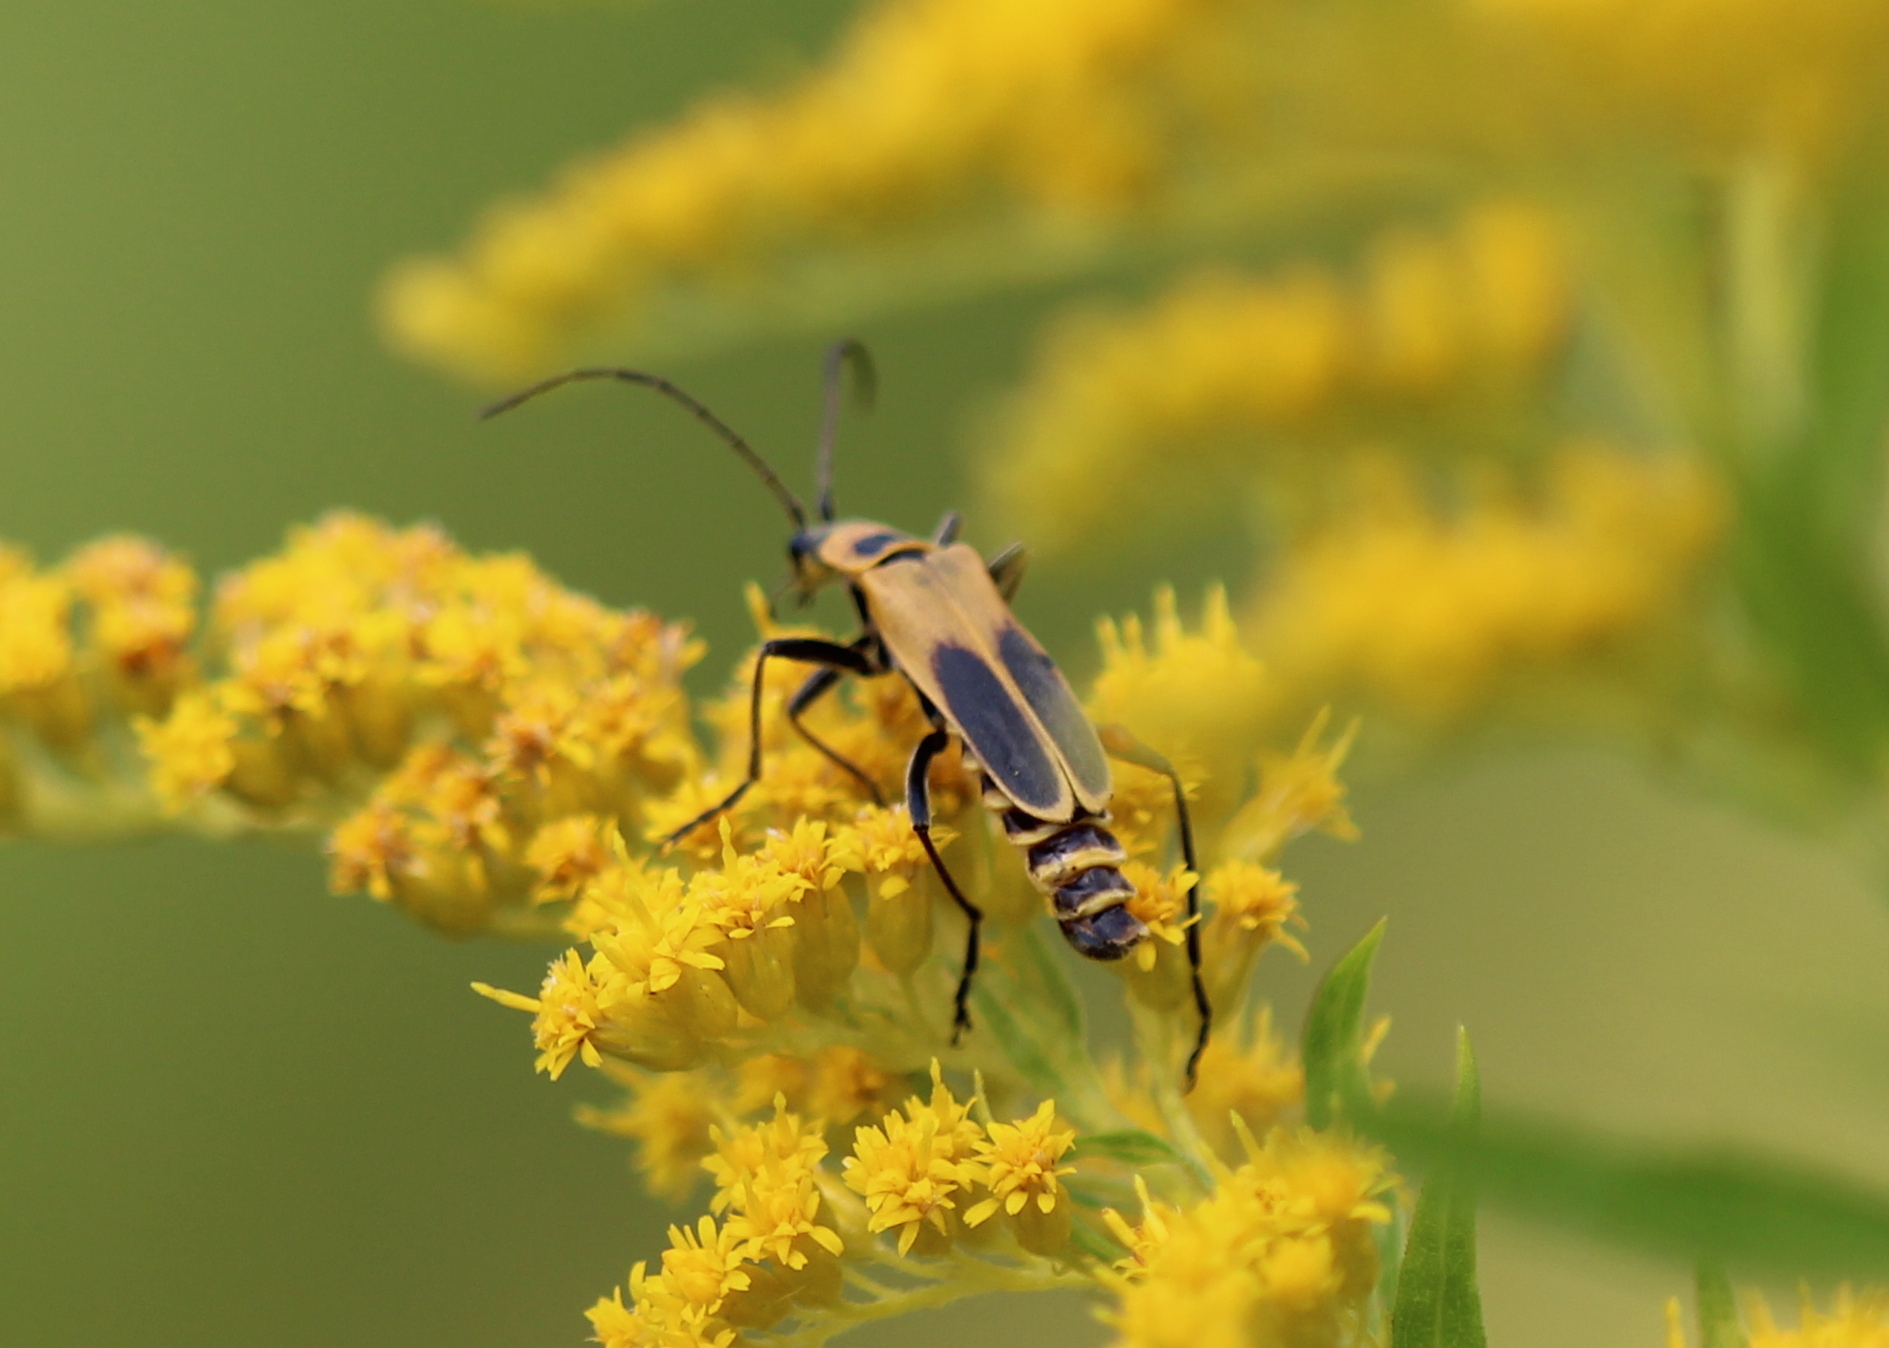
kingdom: Animalia
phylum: Arthropoda
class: Insecta
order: Coleoptera
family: Cantharidae
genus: Chauliognathus
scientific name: Chauliognathus pensylvanicus
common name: Goldenrod soldier beetle
